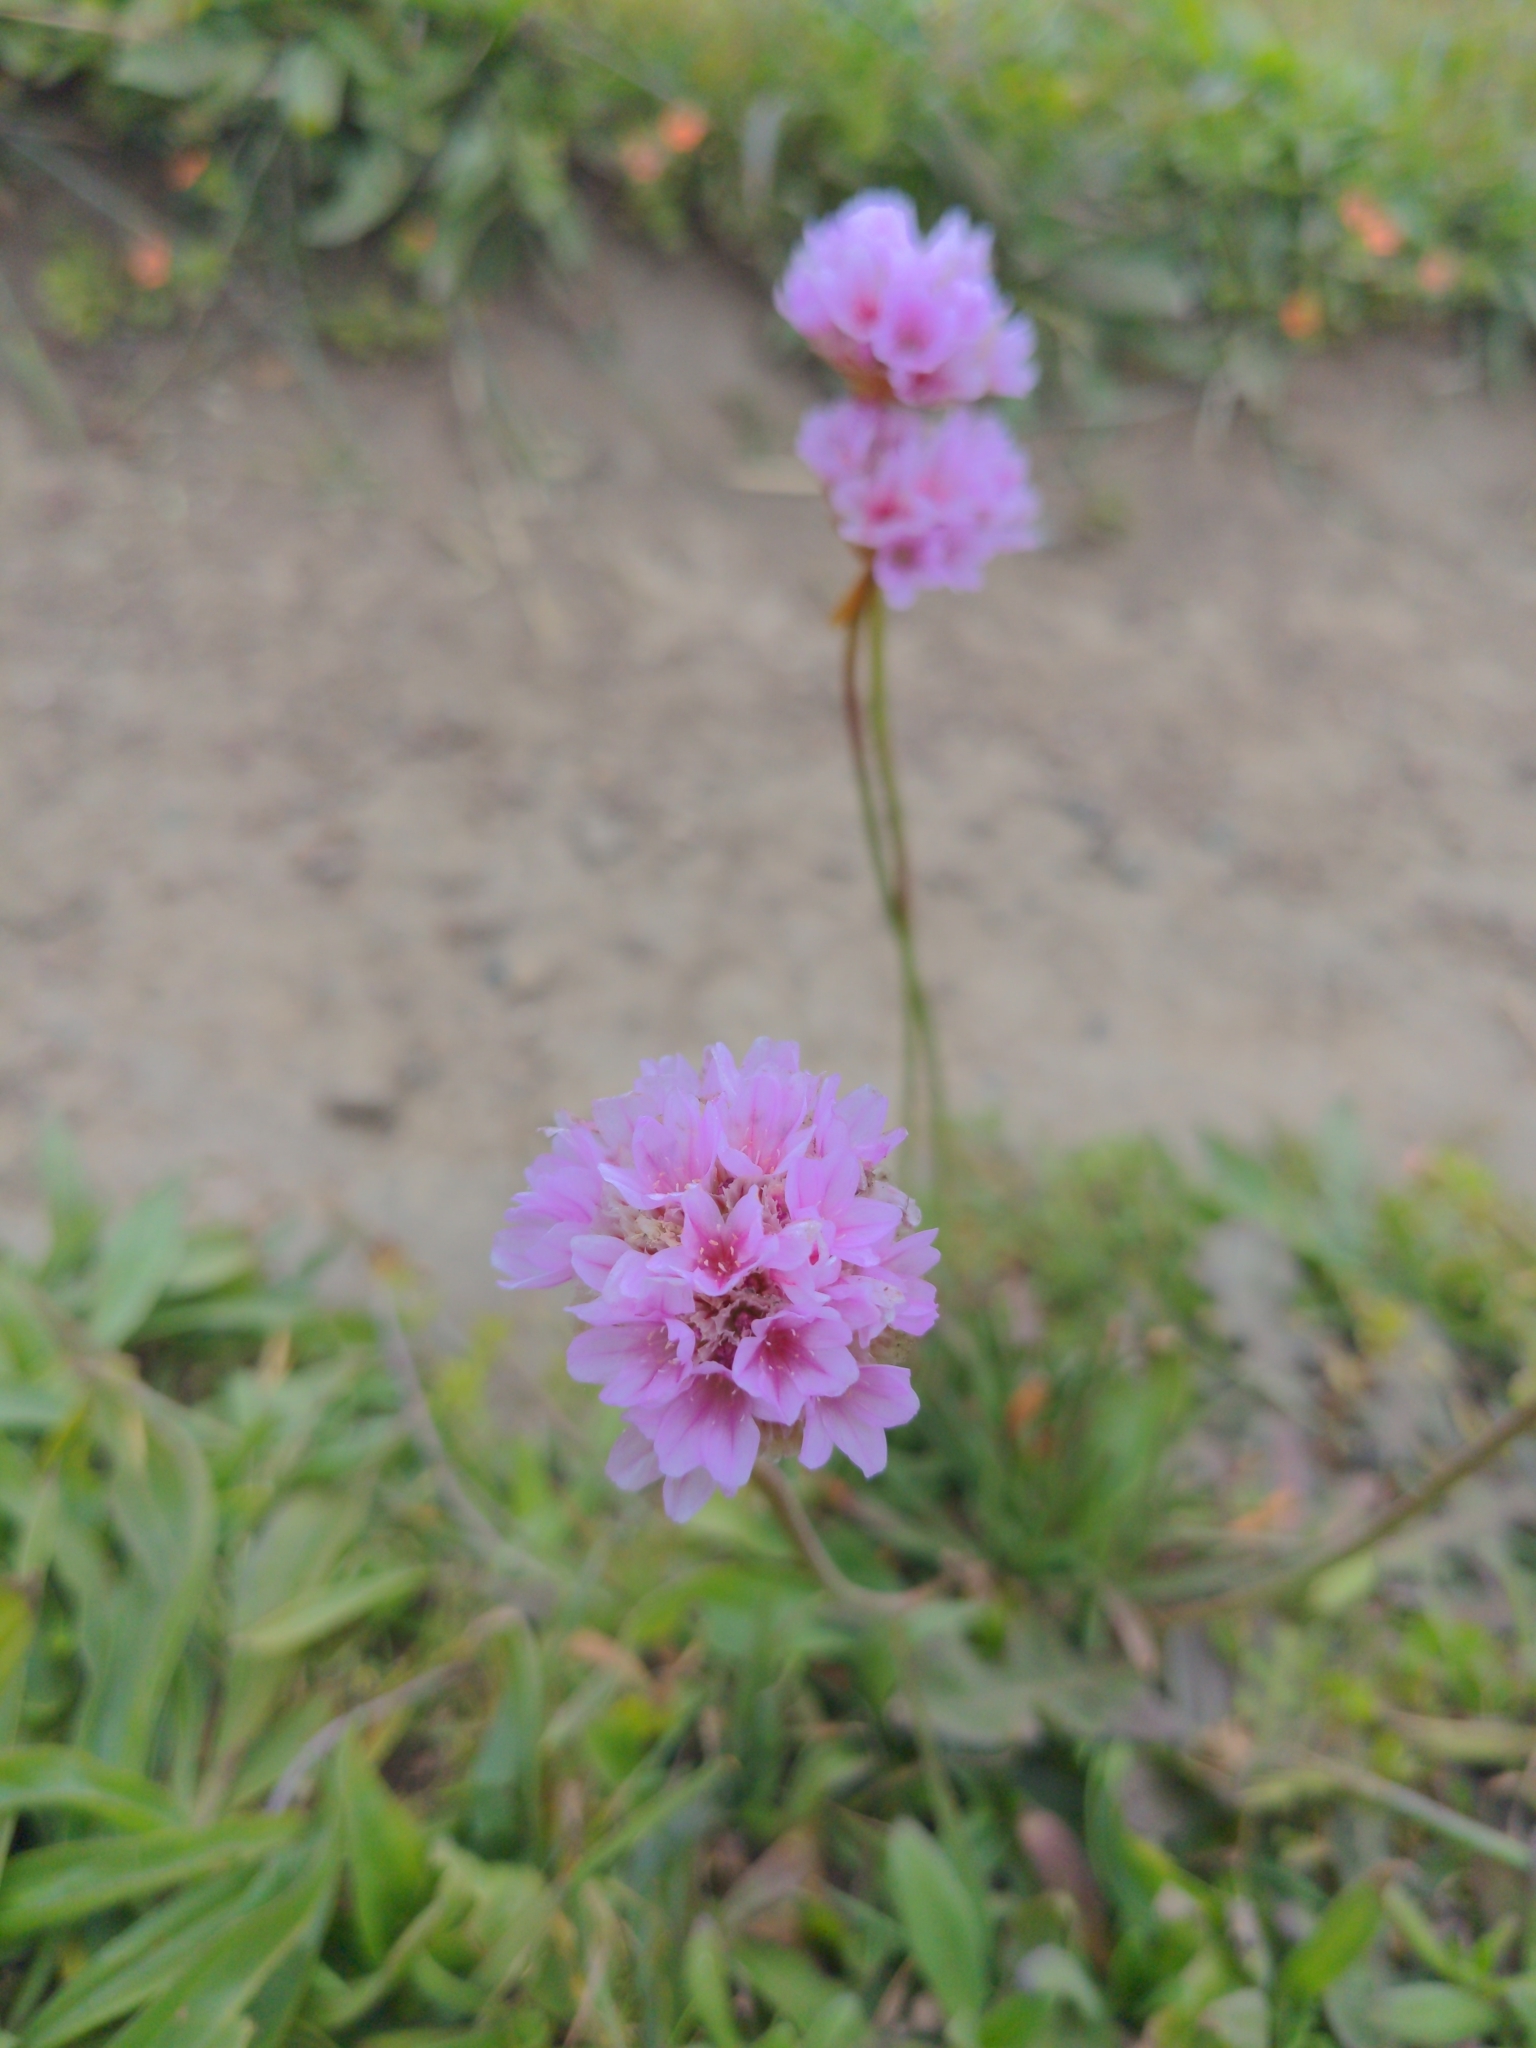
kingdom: Plantae
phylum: Tracheophyta
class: Magnoliopsida
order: Caryophyllales
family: Plumbaginaceae
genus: Armeria
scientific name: Armeria maritima
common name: Thrift
